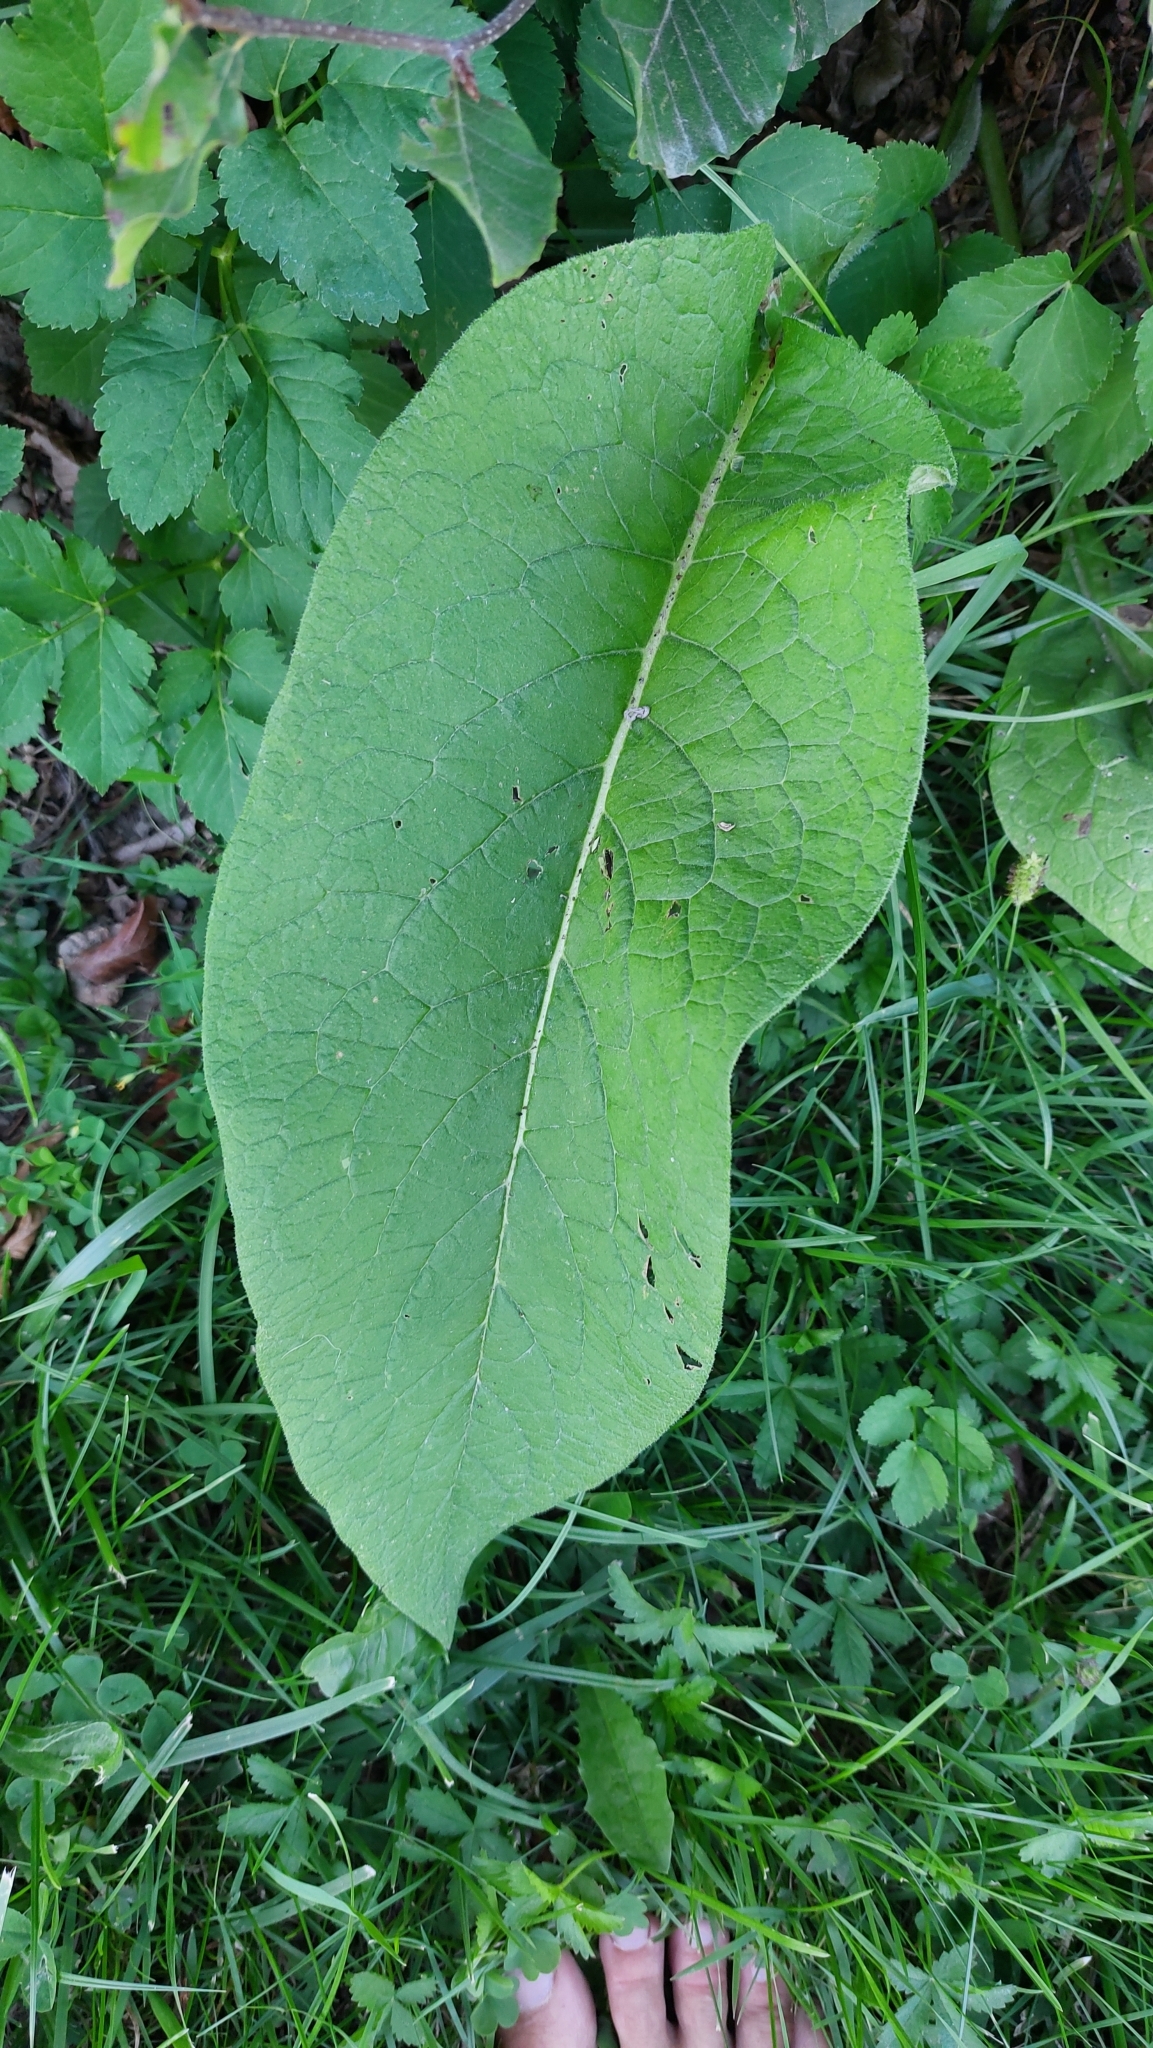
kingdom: Plantae
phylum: Tracheophyta
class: Magnoliopsida
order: Boraginales
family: Boraginaceae
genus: Symphytum
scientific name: Symphytum officinale
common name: Common comfrey
